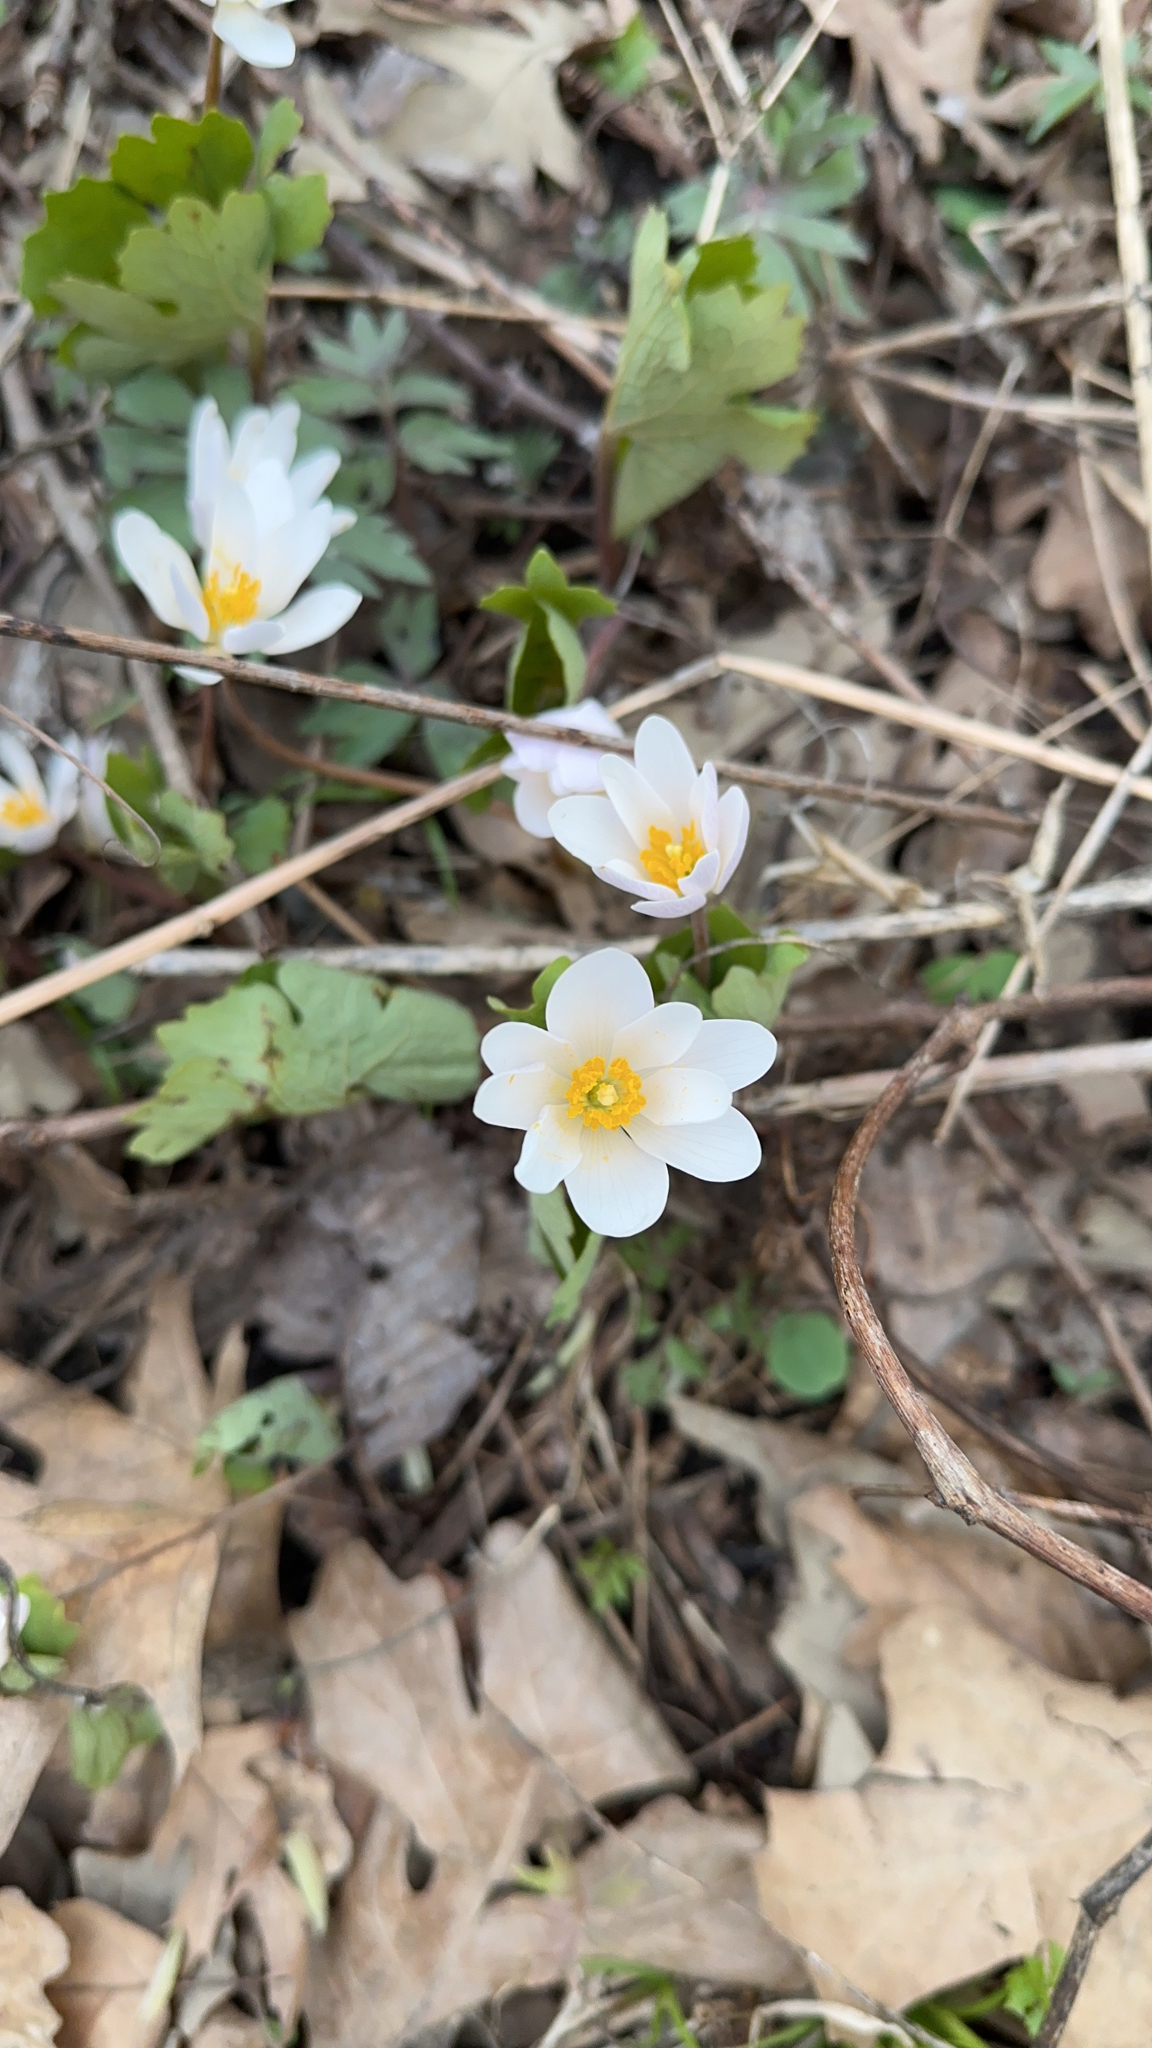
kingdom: Plantae
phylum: Tracheophyta
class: Magnoliopsida
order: Ranunculales
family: Papaveraceae
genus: Sanguinaria
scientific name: Sanguinaria canadensis
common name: Bloodroot
